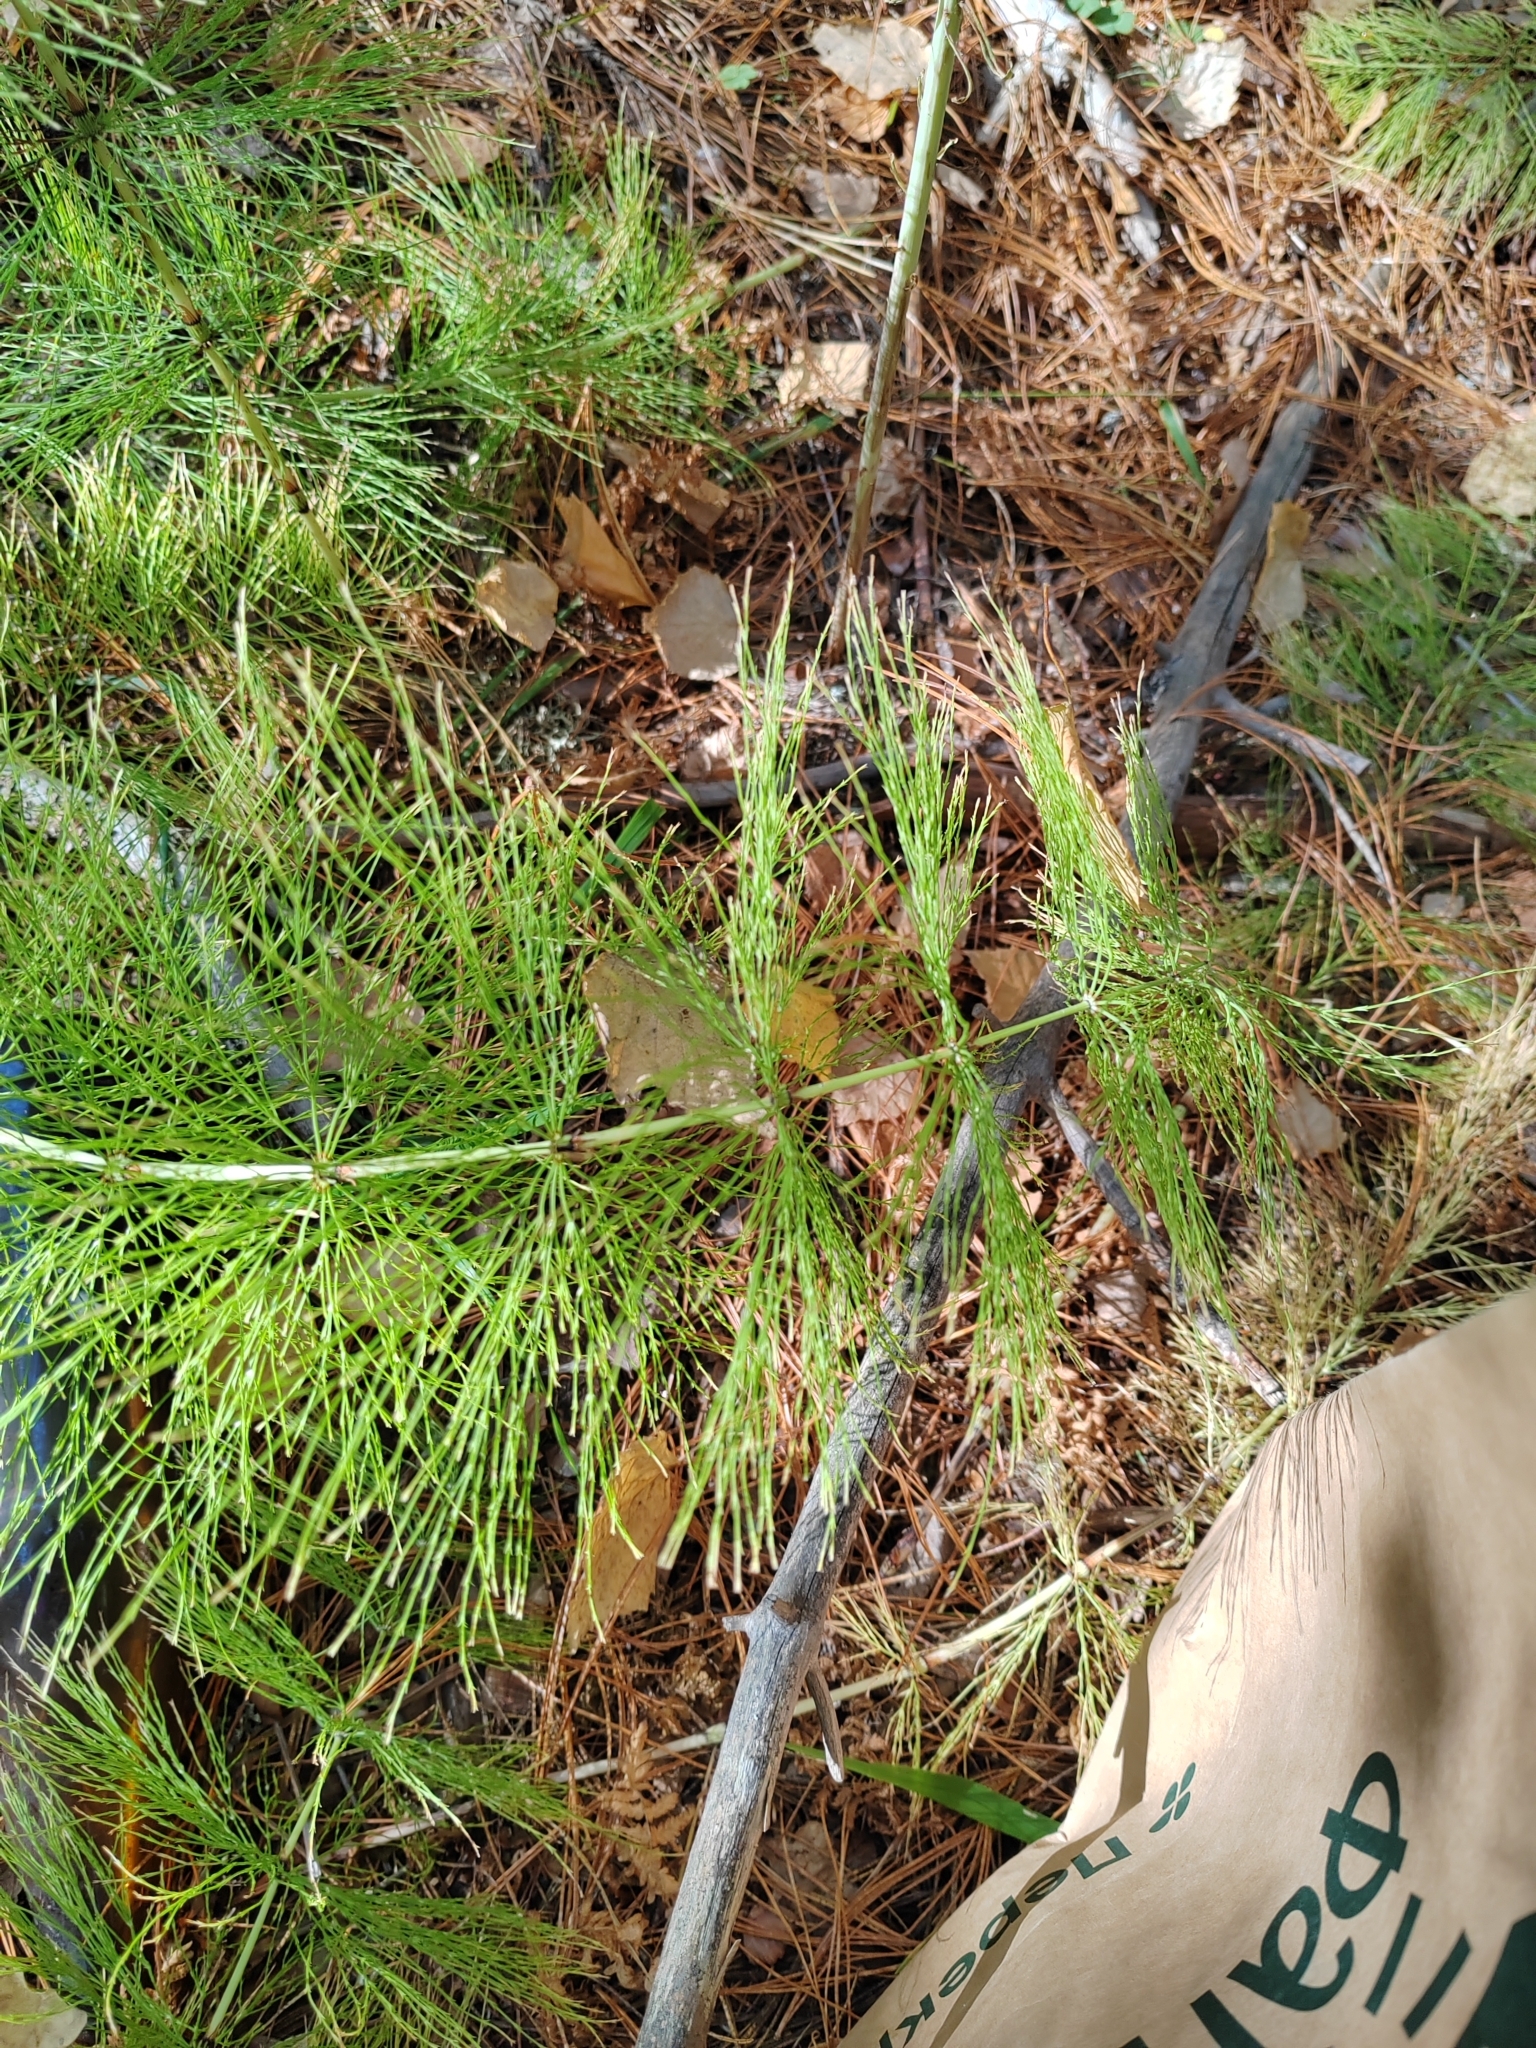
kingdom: Plantae
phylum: Tracheophyta
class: Polypodiopsida
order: Equisetales
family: Equisetaceae
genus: Equisetum
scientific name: Equisetum sylvaticum
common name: Wood horsetail
